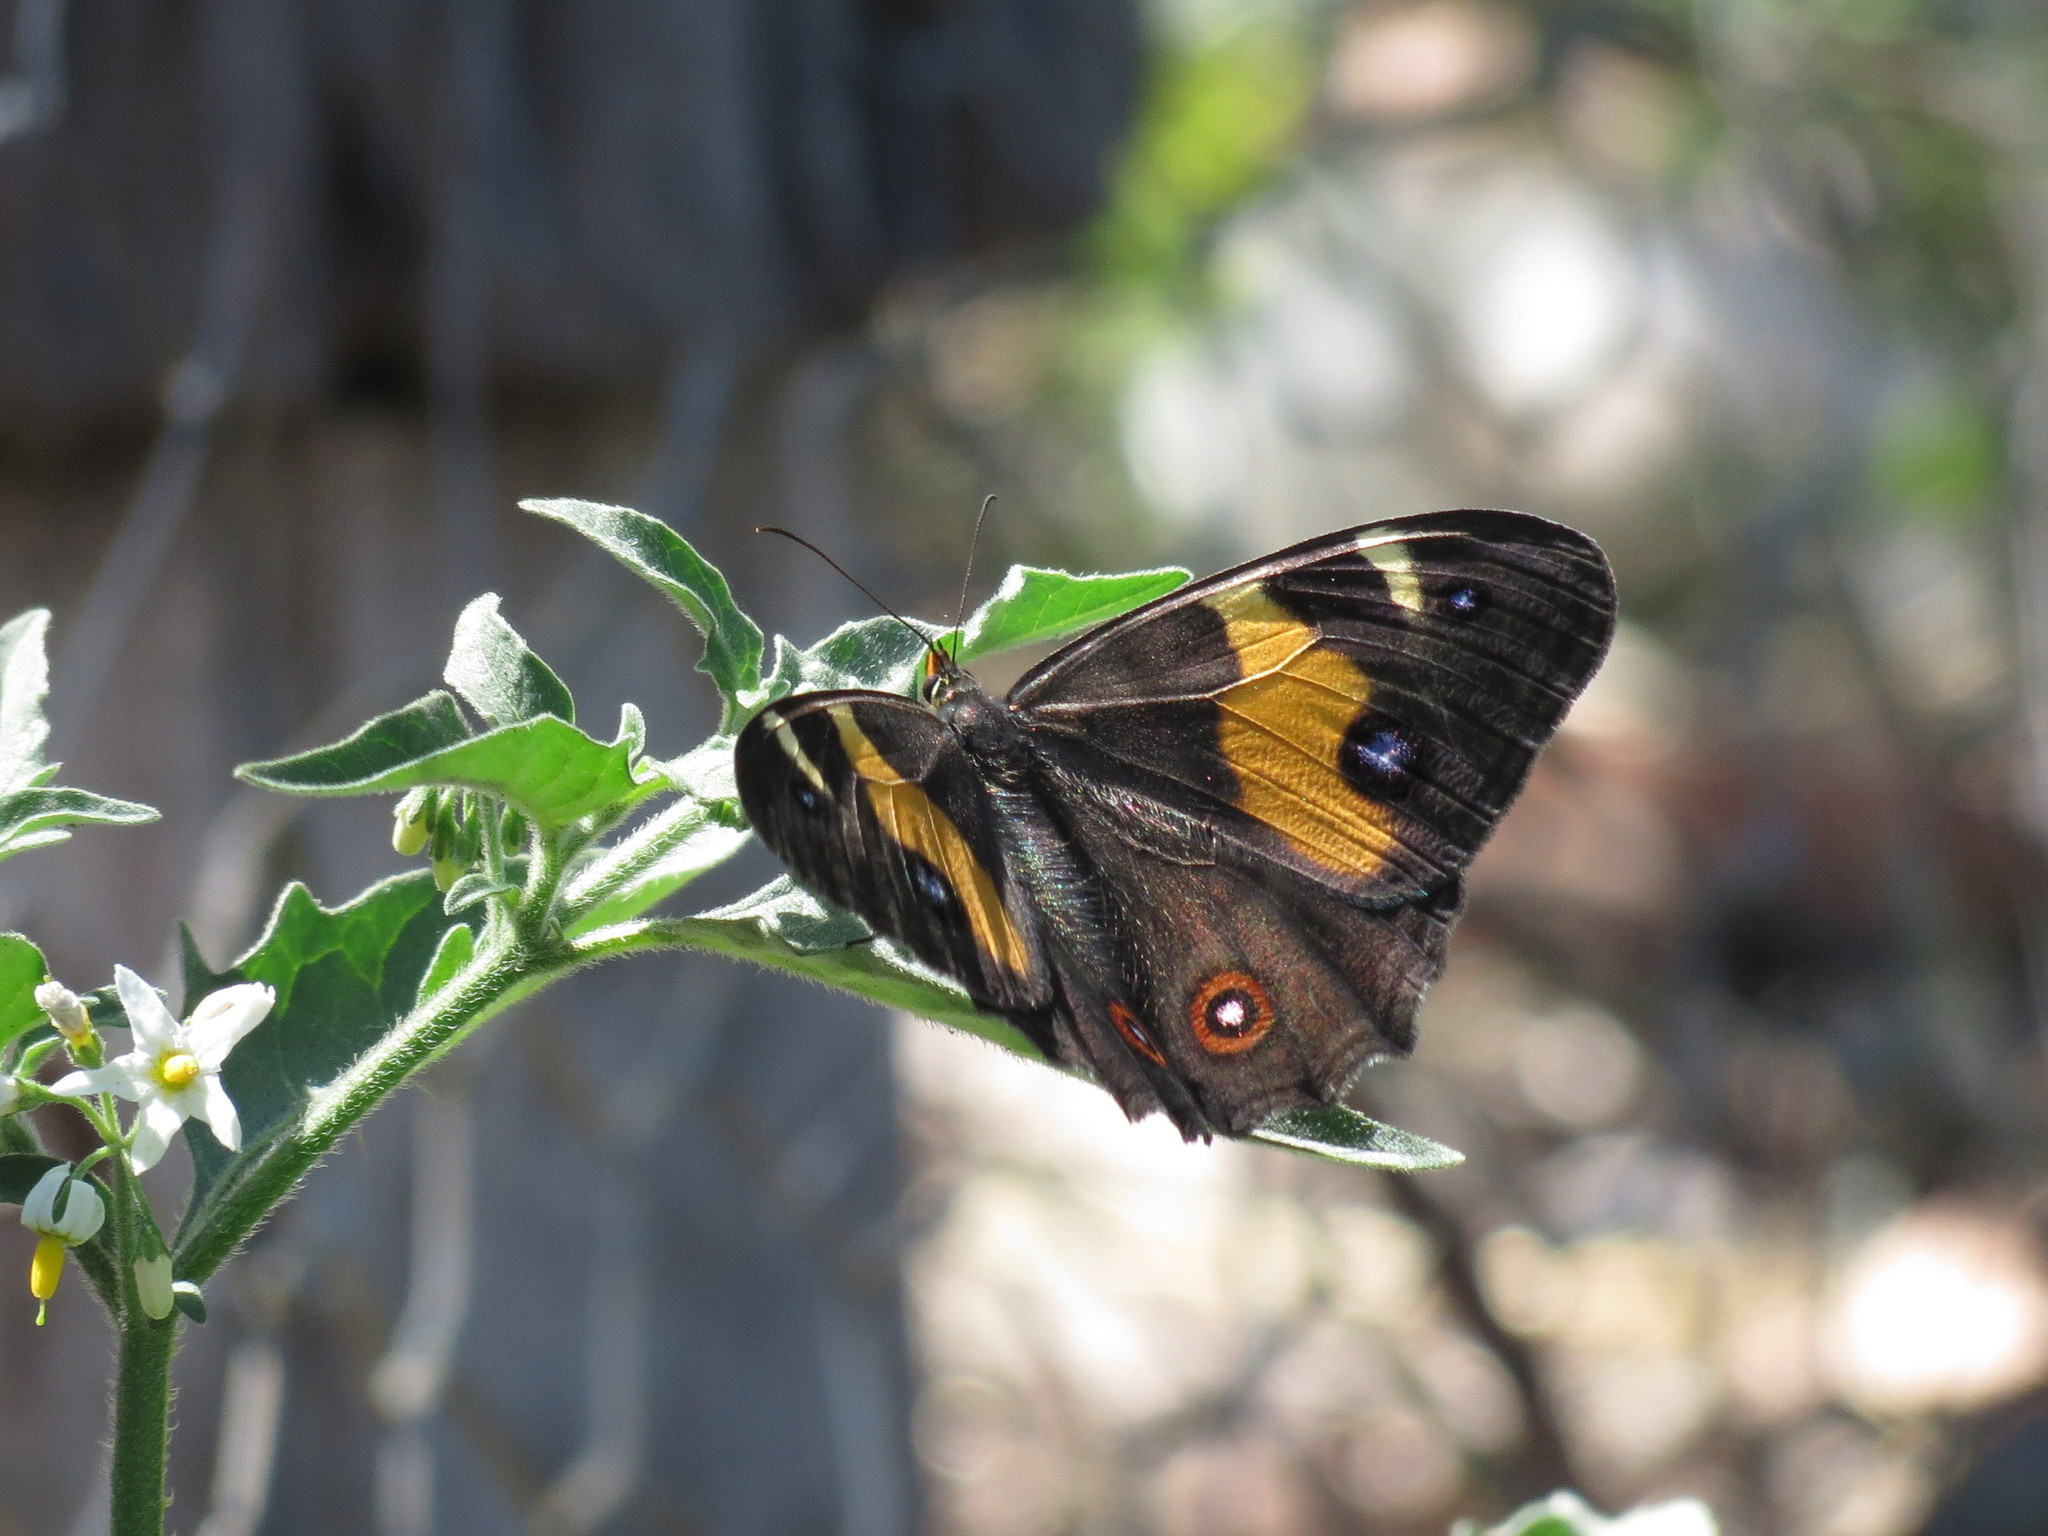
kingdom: Animalia
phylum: Arthropoda
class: Insecta
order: Lepidoptera
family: Nymphalidae
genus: Tisiphone
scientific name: Tisiphone abeona
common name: Swordgrass brown
